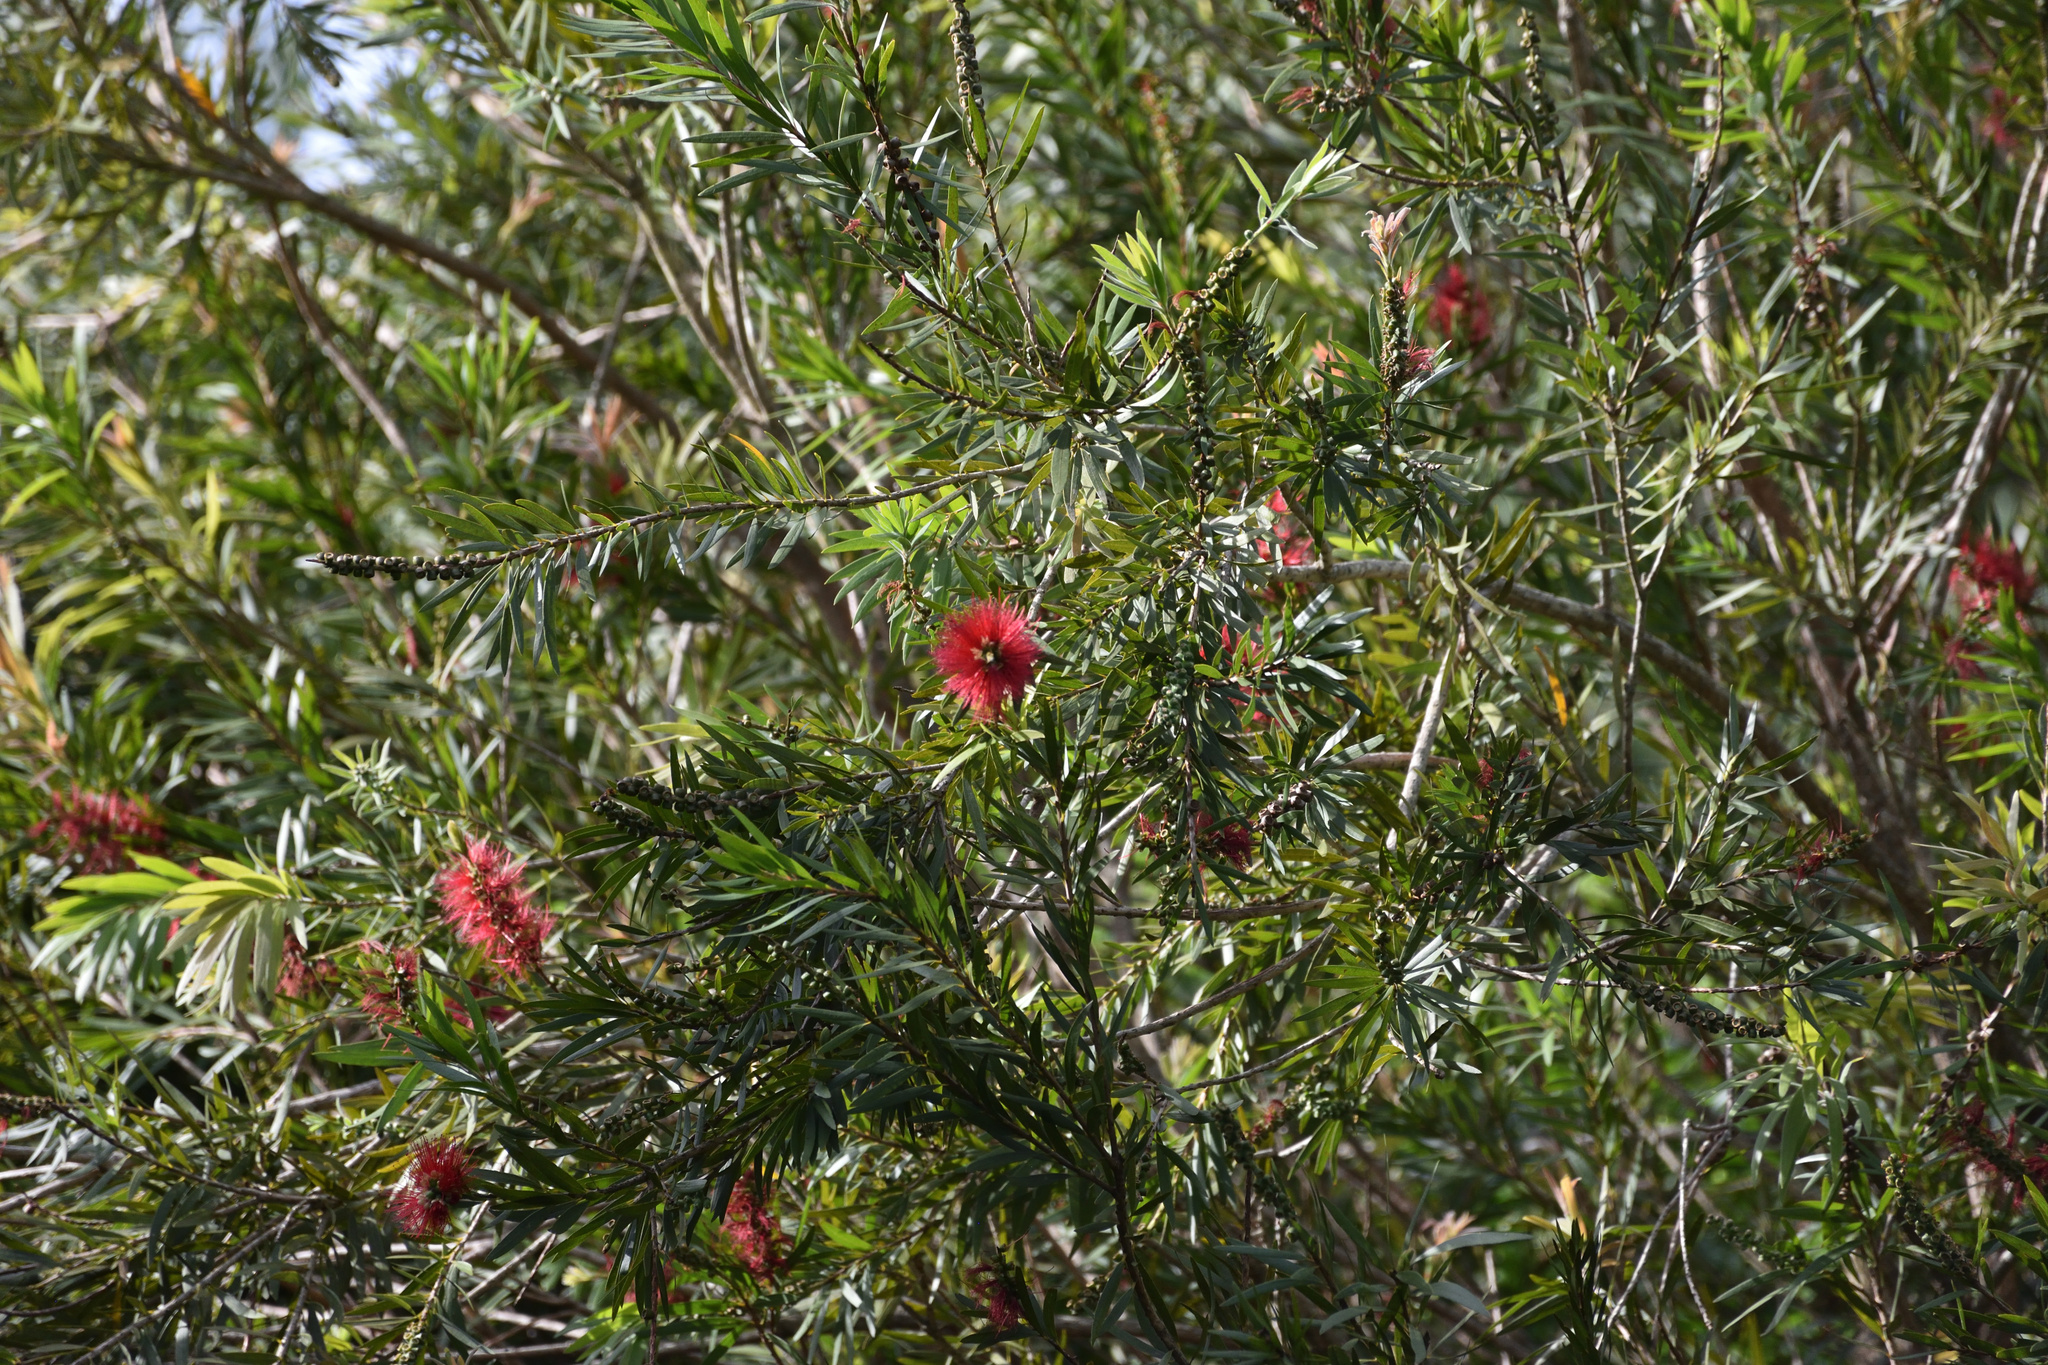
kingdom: Plantae
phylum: Tracheophyta
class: Magnoliopsida
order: Myrtales
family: Myrtaceae
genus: Callistemon
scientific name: Callistemon viminalis
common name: Drooping bottlebrush
